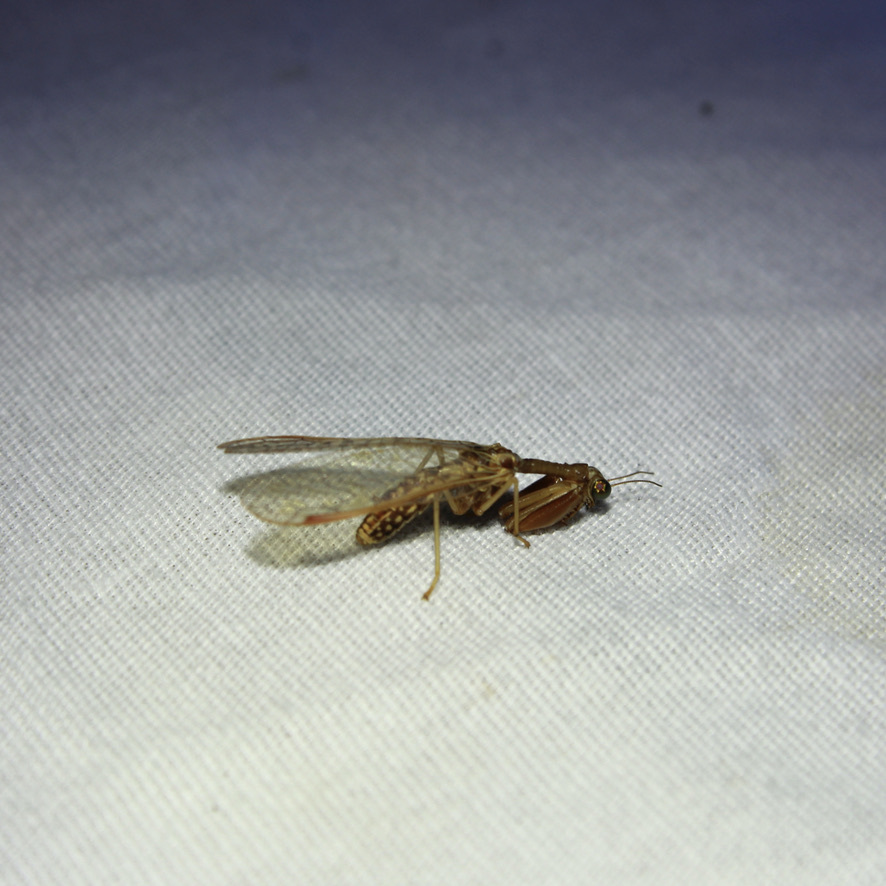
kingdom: Animalia
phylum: Arthropoda
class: Insecta
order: Neuroptera
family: Mantispidae
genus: Dicromantispa
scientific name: Dicromantispa sayi
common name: Say's mantidfly
